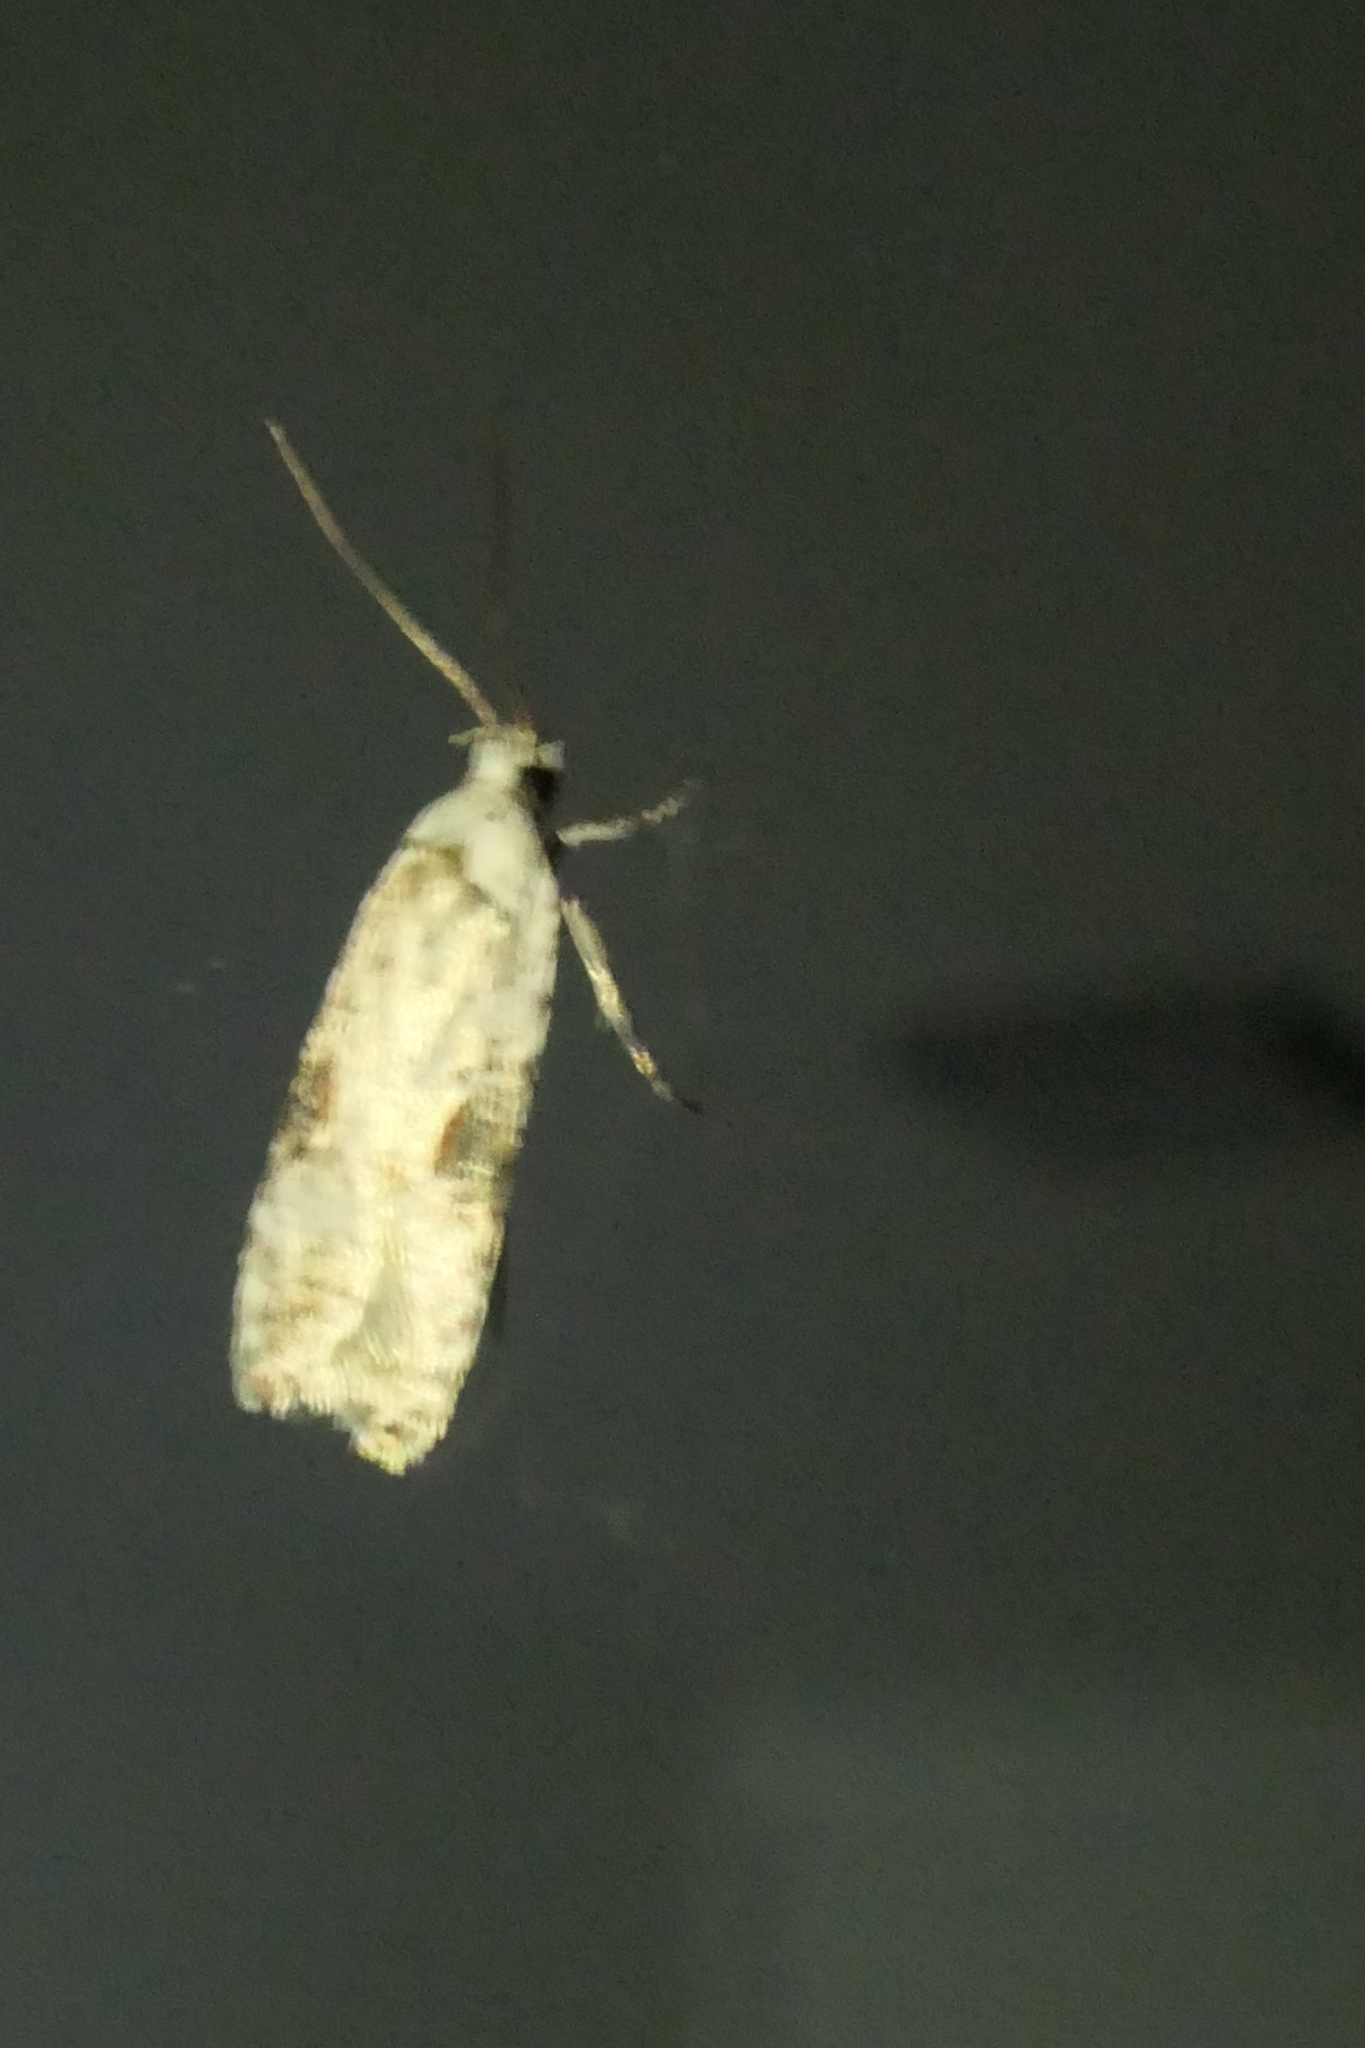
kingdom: Animalia
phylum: Arthropoda
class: Insecta
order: Lepidoptera
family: Depressariidae
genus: Agonopterix
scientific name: Agonopterix alstroemeriana
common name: Moth
